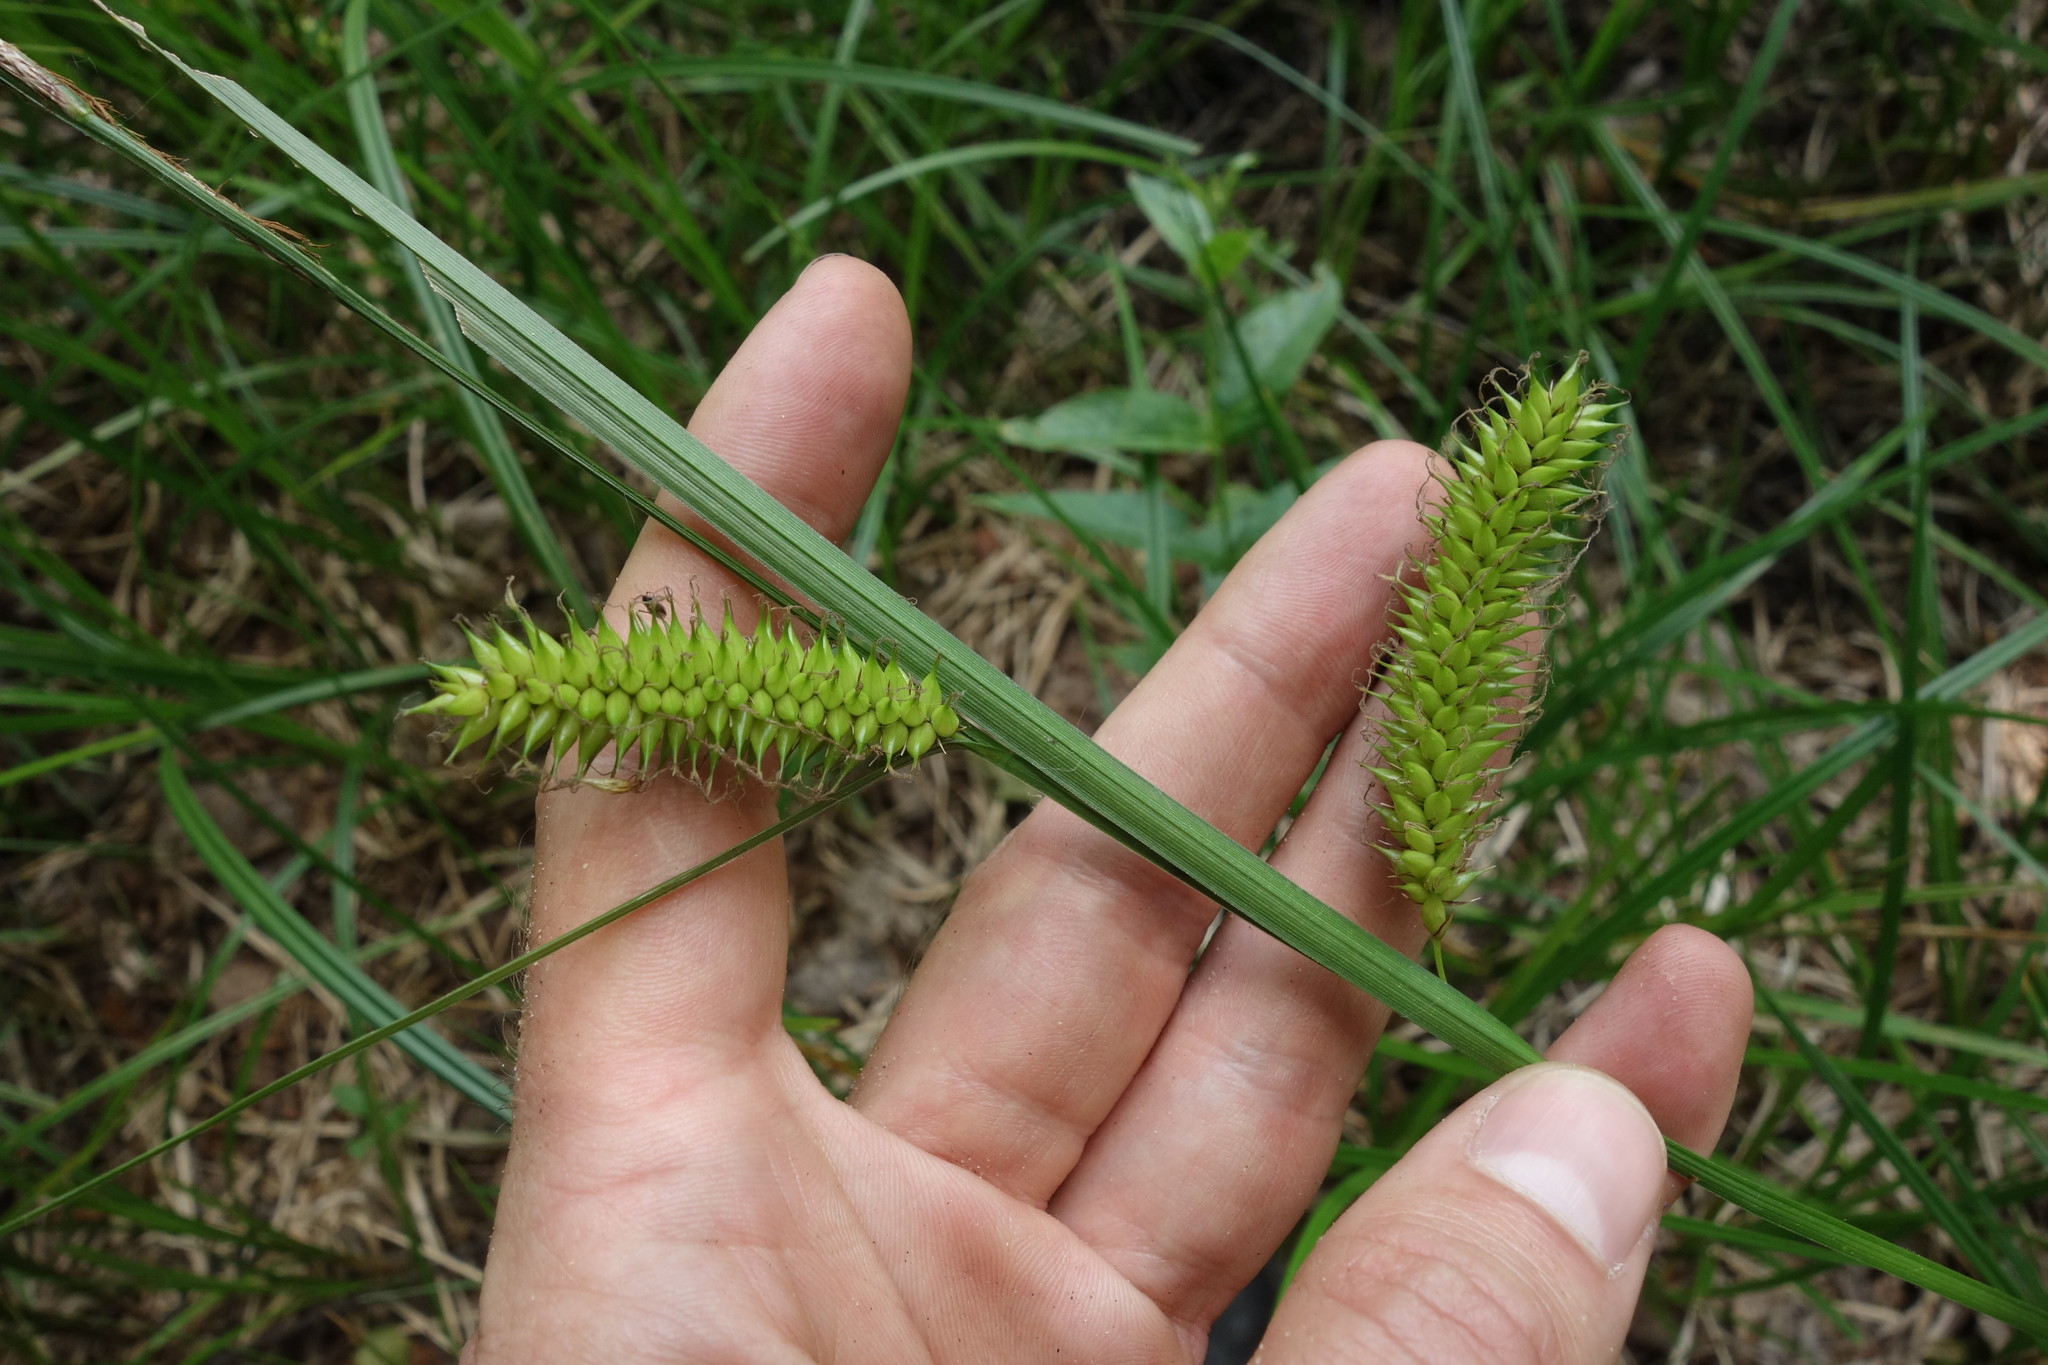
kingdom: Plantae
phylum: Tracheophyta
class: Liliopsida
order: Poales
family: Cyperaceae
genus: Carex
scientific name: Carex vesicaria
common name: Bladder-sedge
